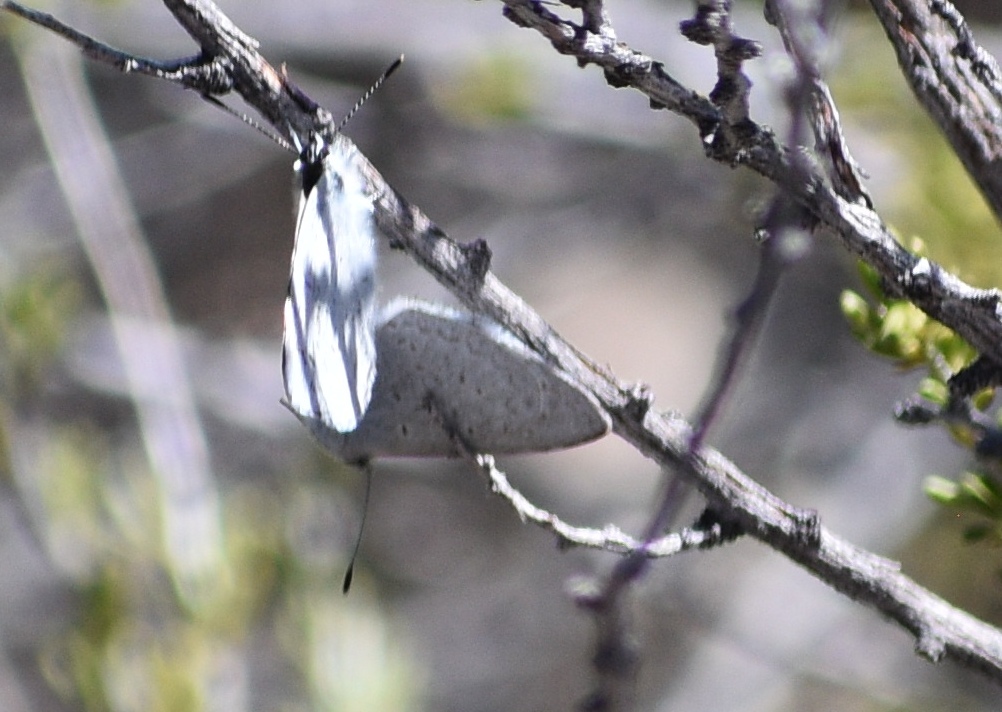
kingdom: Animalia
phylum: Arthropoda
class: Insecta
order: Lepidoptera
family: Lycaenidae
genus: Celastrina
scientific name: Celastrina ladon
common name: Spring azure
